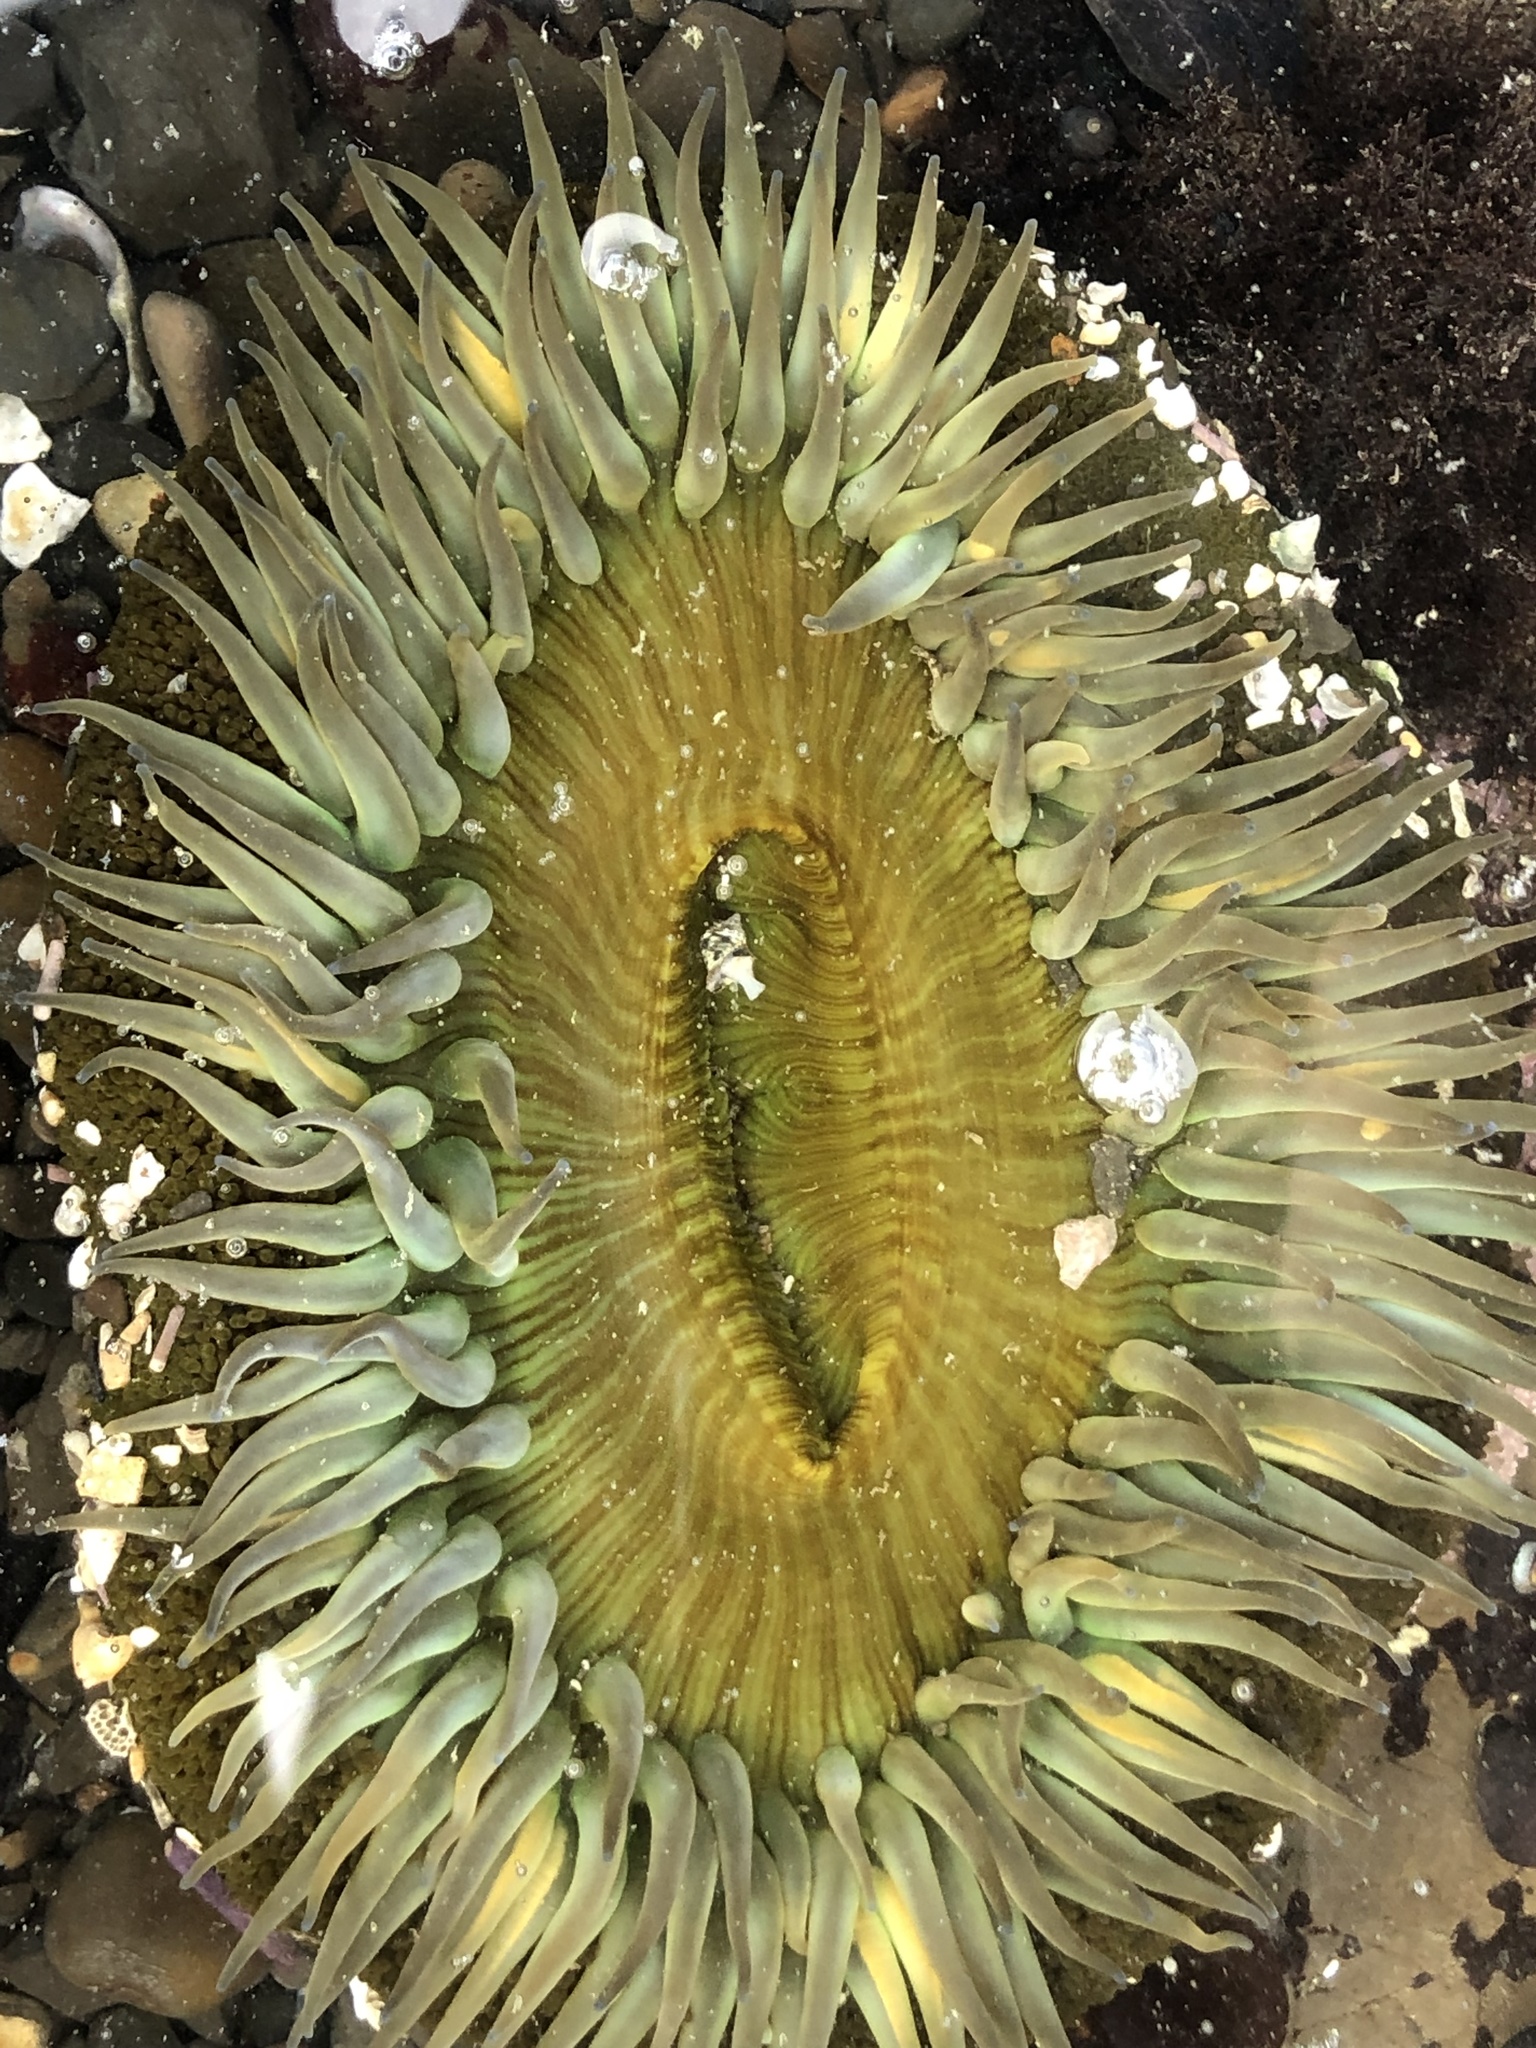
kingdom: Animalia
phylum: Cnidaria
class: Anthozoa
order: Actiniaria
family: Actiniidae
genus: Anthopleura
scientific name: Anthopleura sola
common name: Sun anemone
